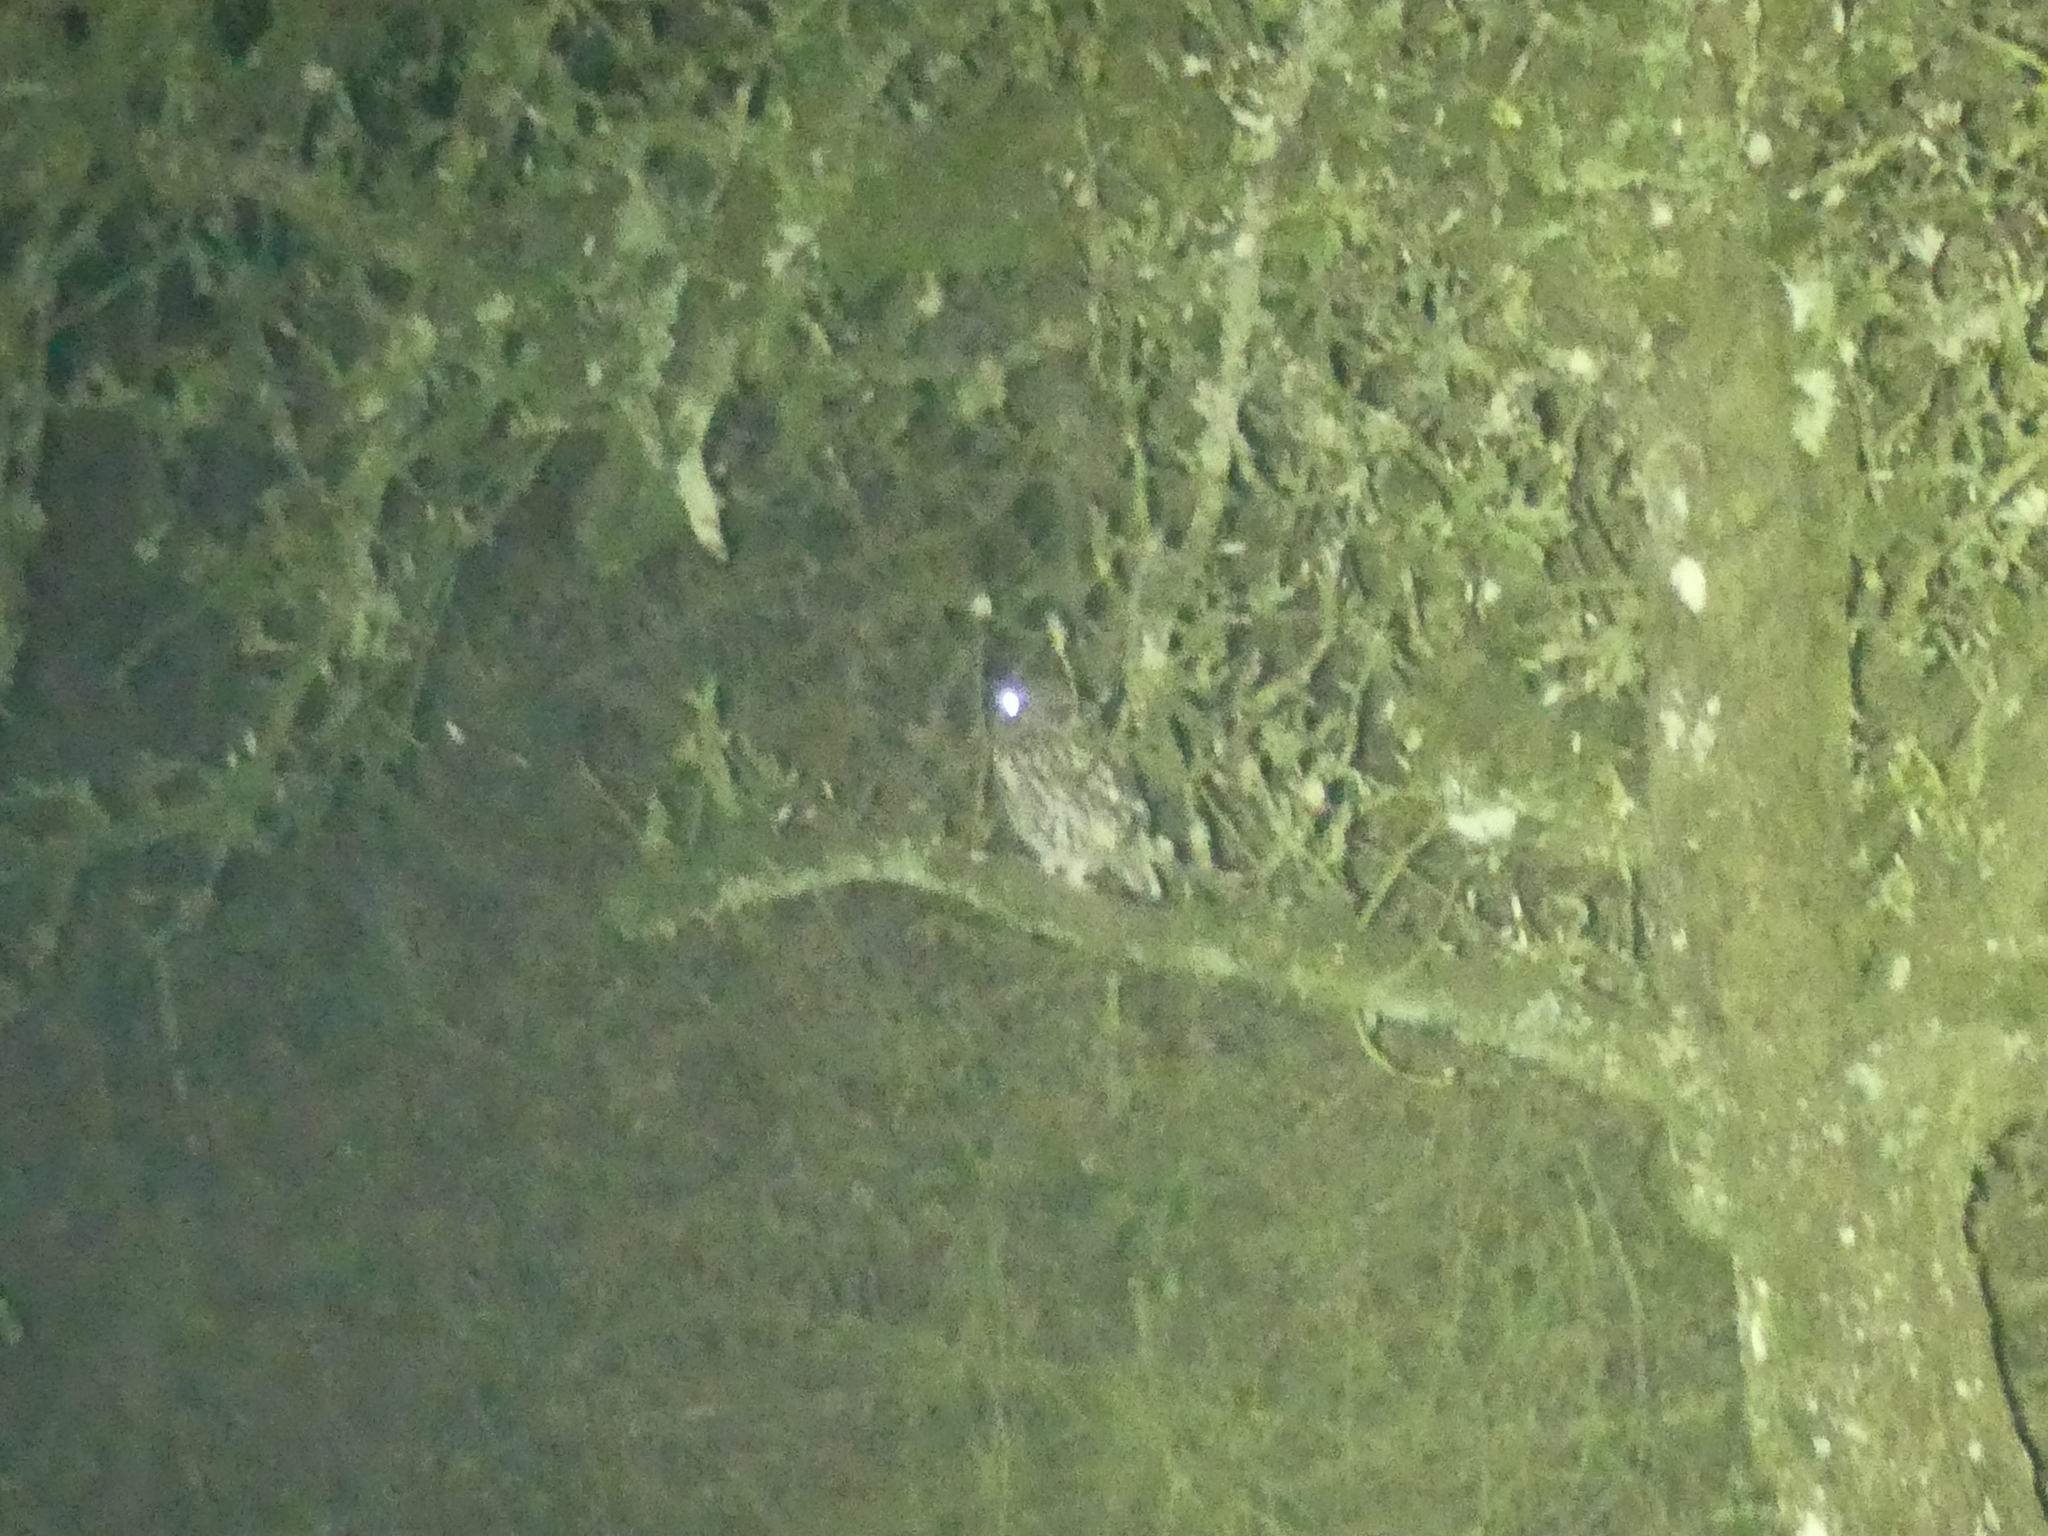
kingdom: Animalia
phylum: Chordata
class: Aves
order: Strigiformes
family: Strigidae
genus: Athene
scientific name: Athene noctua
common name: Little owl
